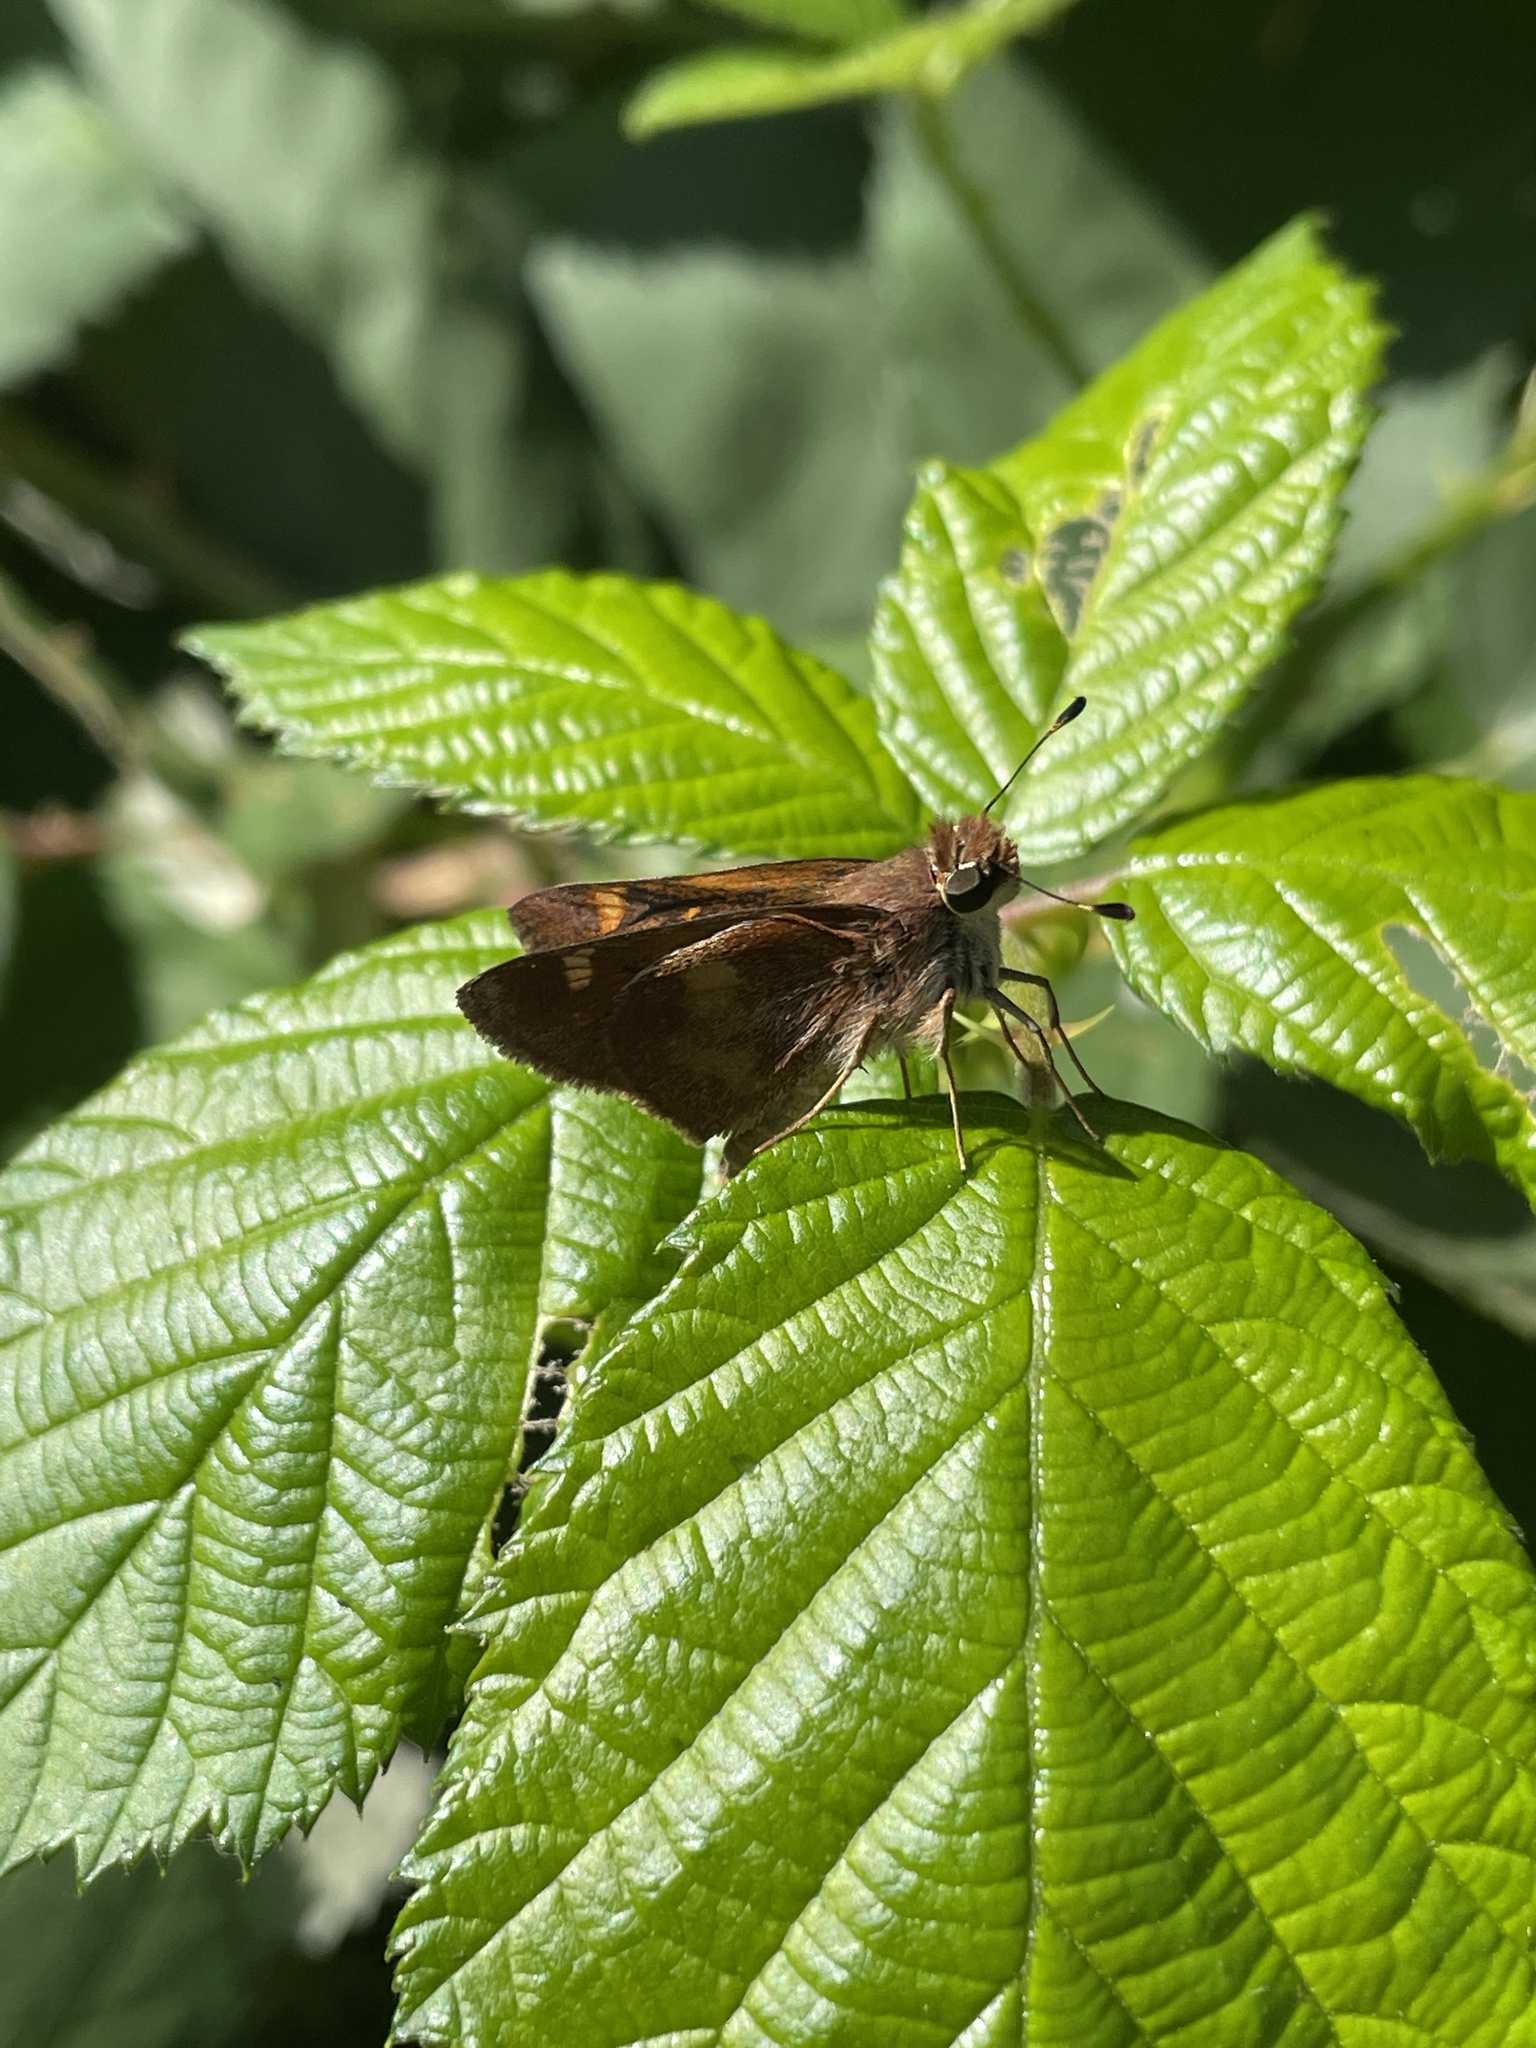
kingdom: Animalia
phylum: Arthropoda
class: Insecta
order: Lepidoptera
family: Hesperiidae
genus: Lon
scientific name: Lon melane
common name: Umber skipper
